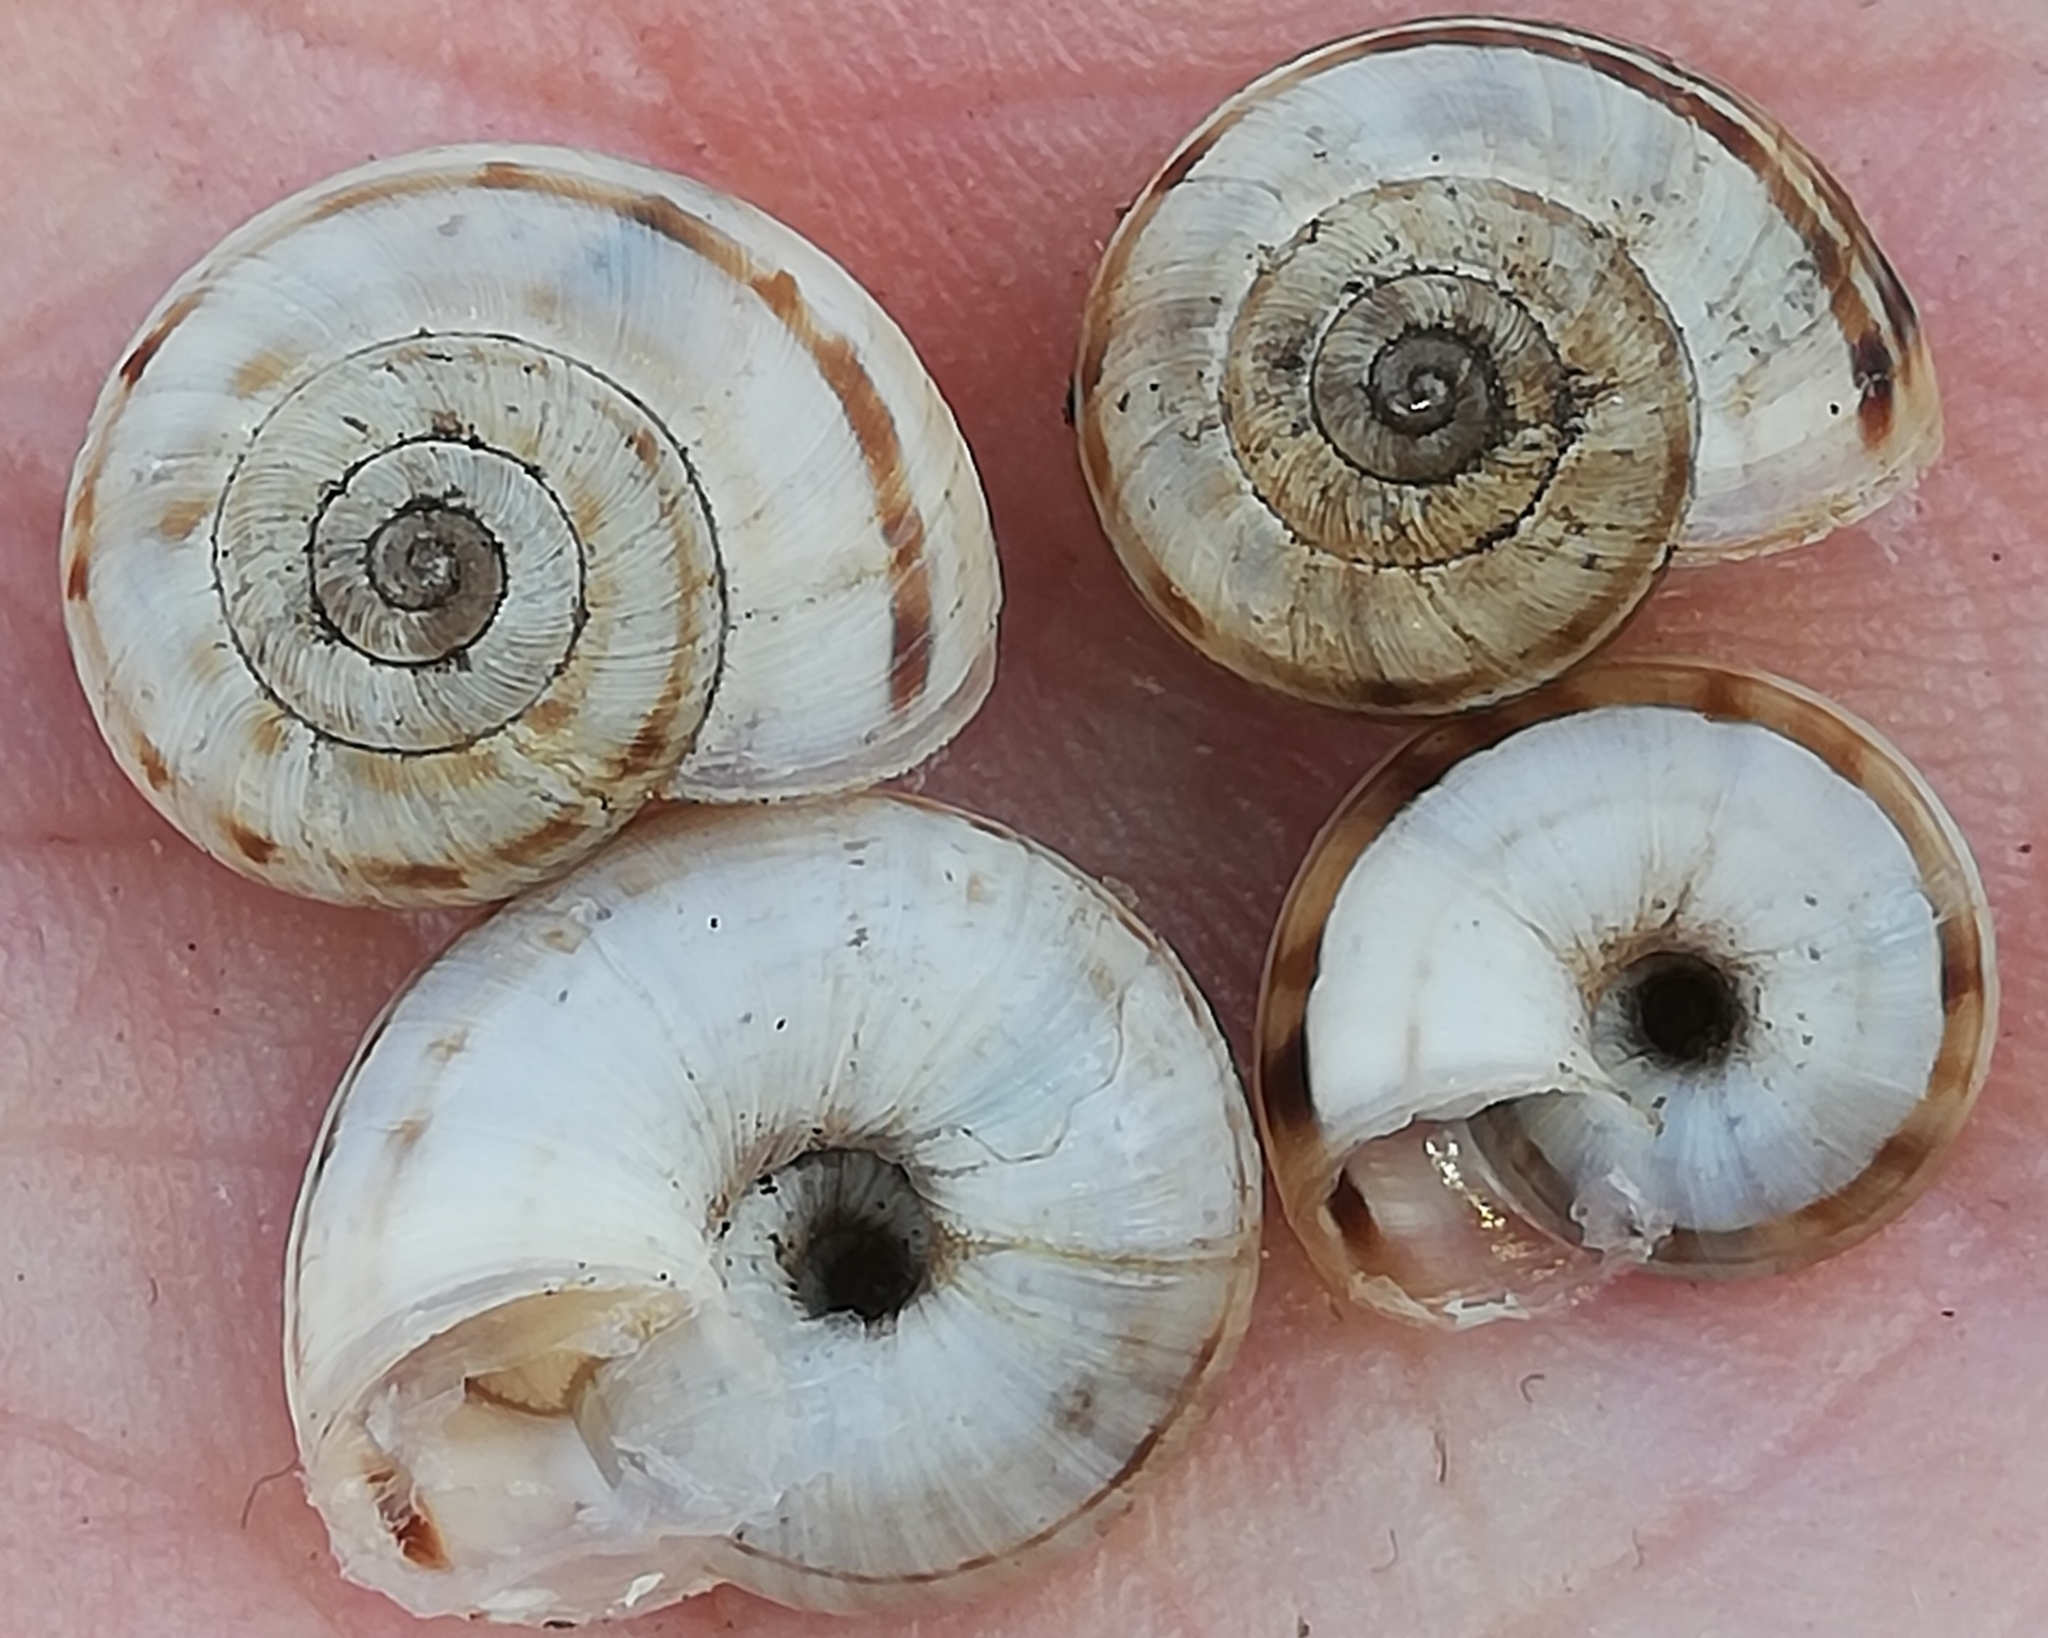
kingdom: Animalia
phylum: Mollusca
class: Gastropoda
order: Stylommatophora
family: Geomitridae
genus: Xerolenta
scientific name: Xerolenta obvia
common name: White heath snail
